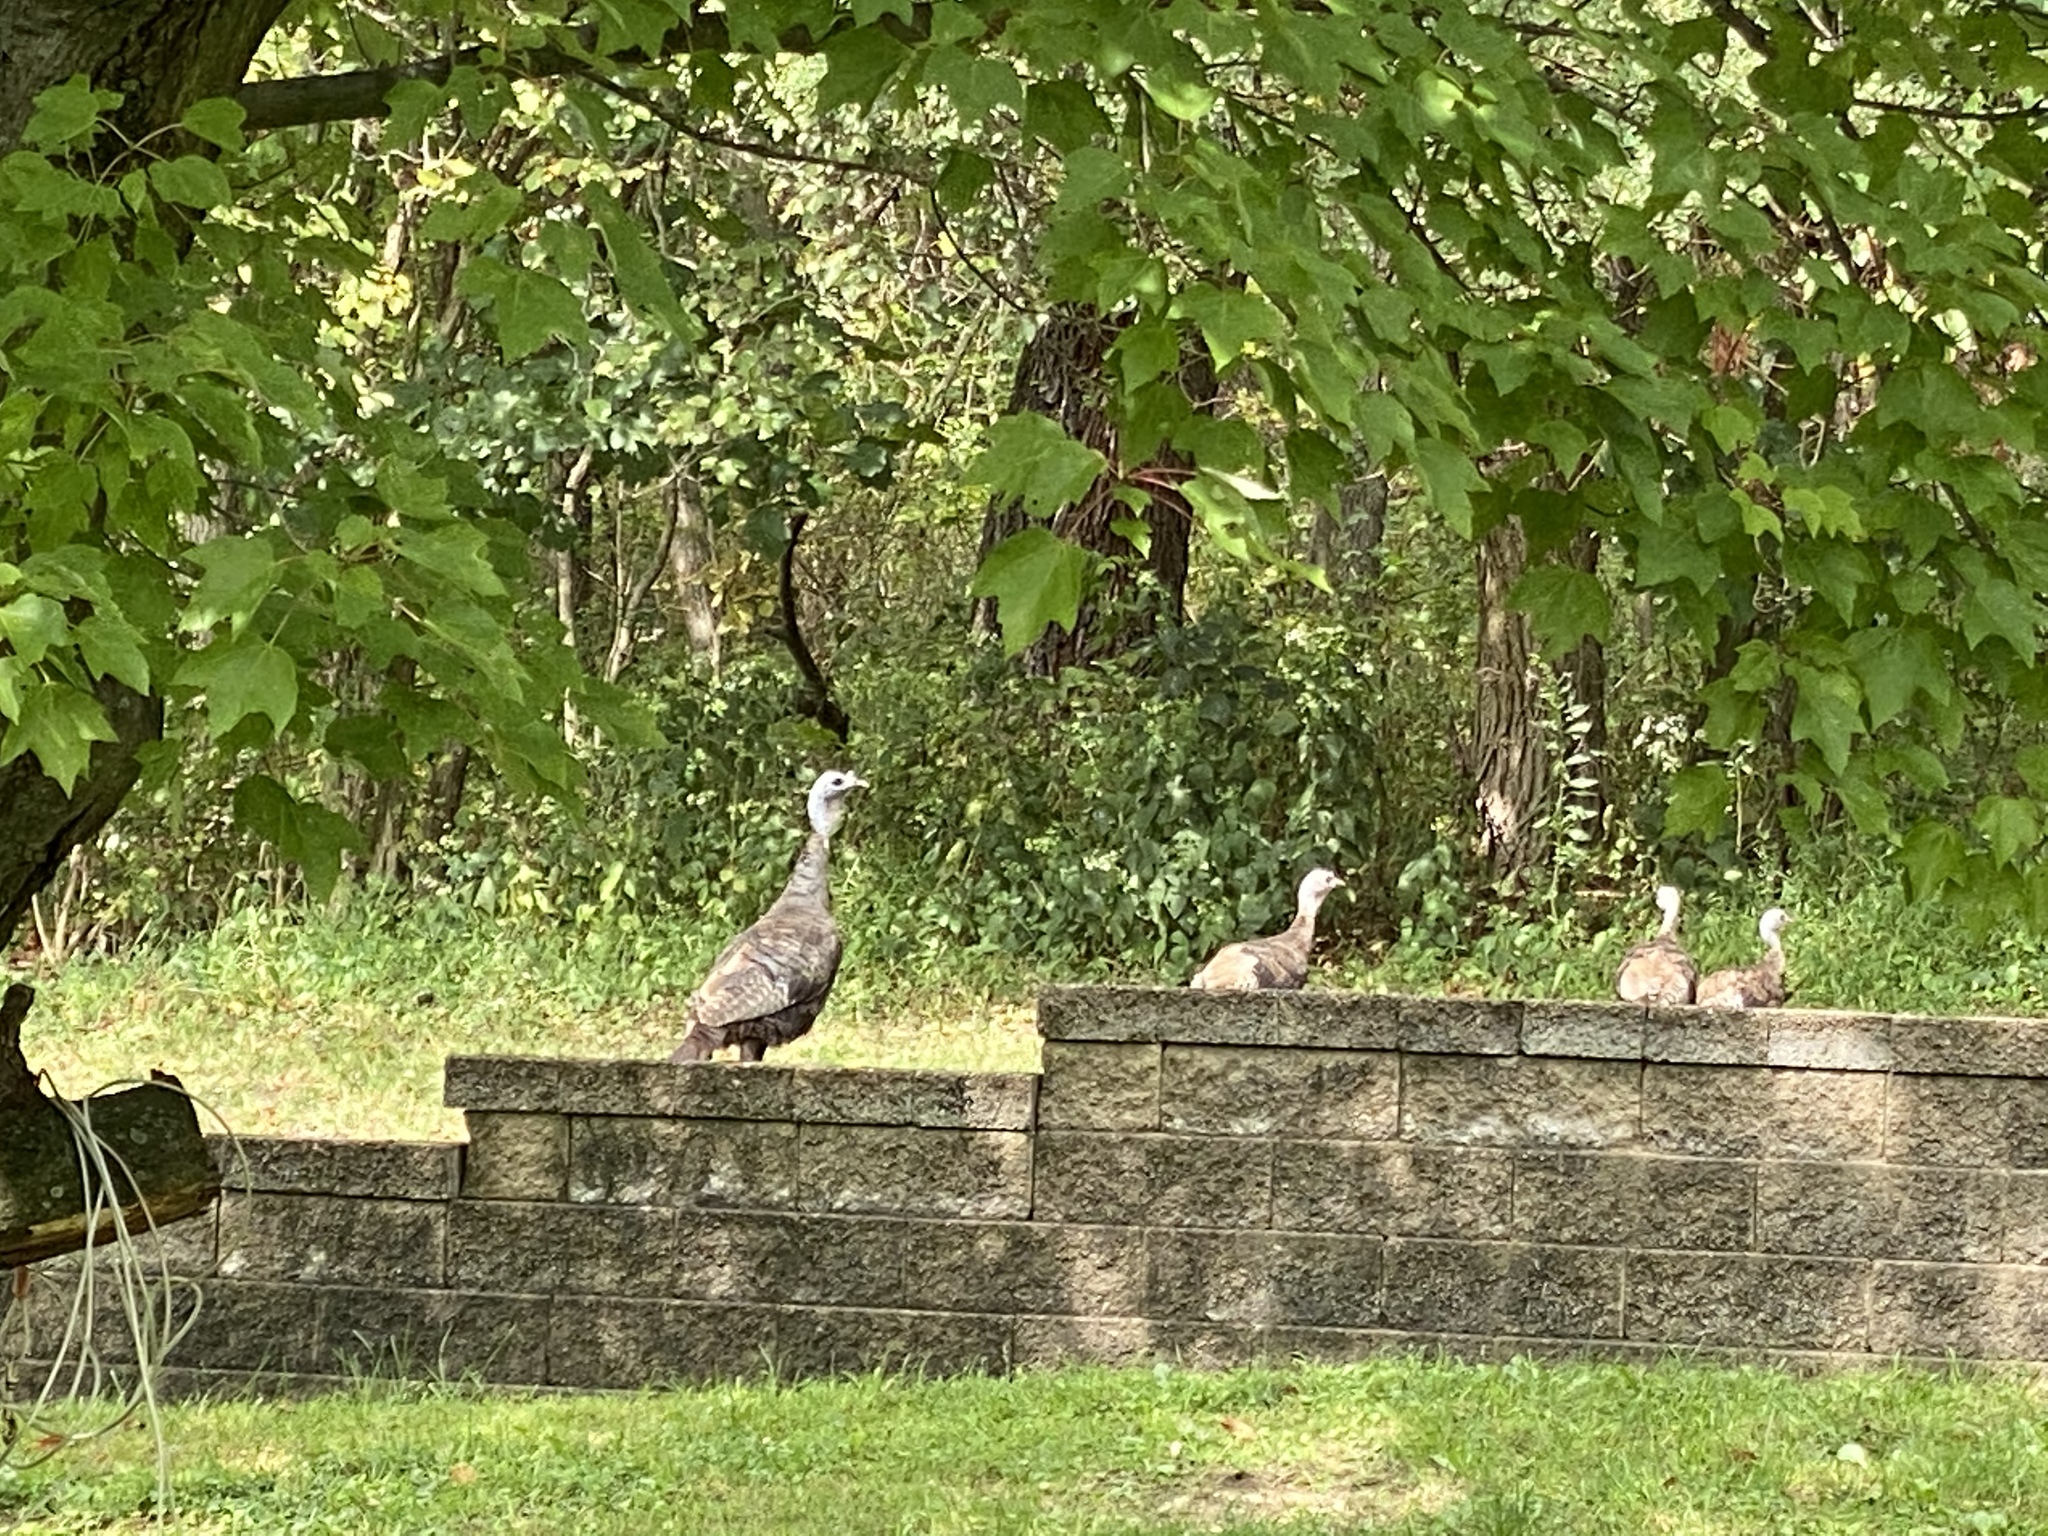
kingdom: Animalia
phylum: Chordata
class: Aves
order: Galliformes
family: Phasianidae
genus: Meleagris
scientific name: Meleagris gallopavo
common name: Wild turkey
